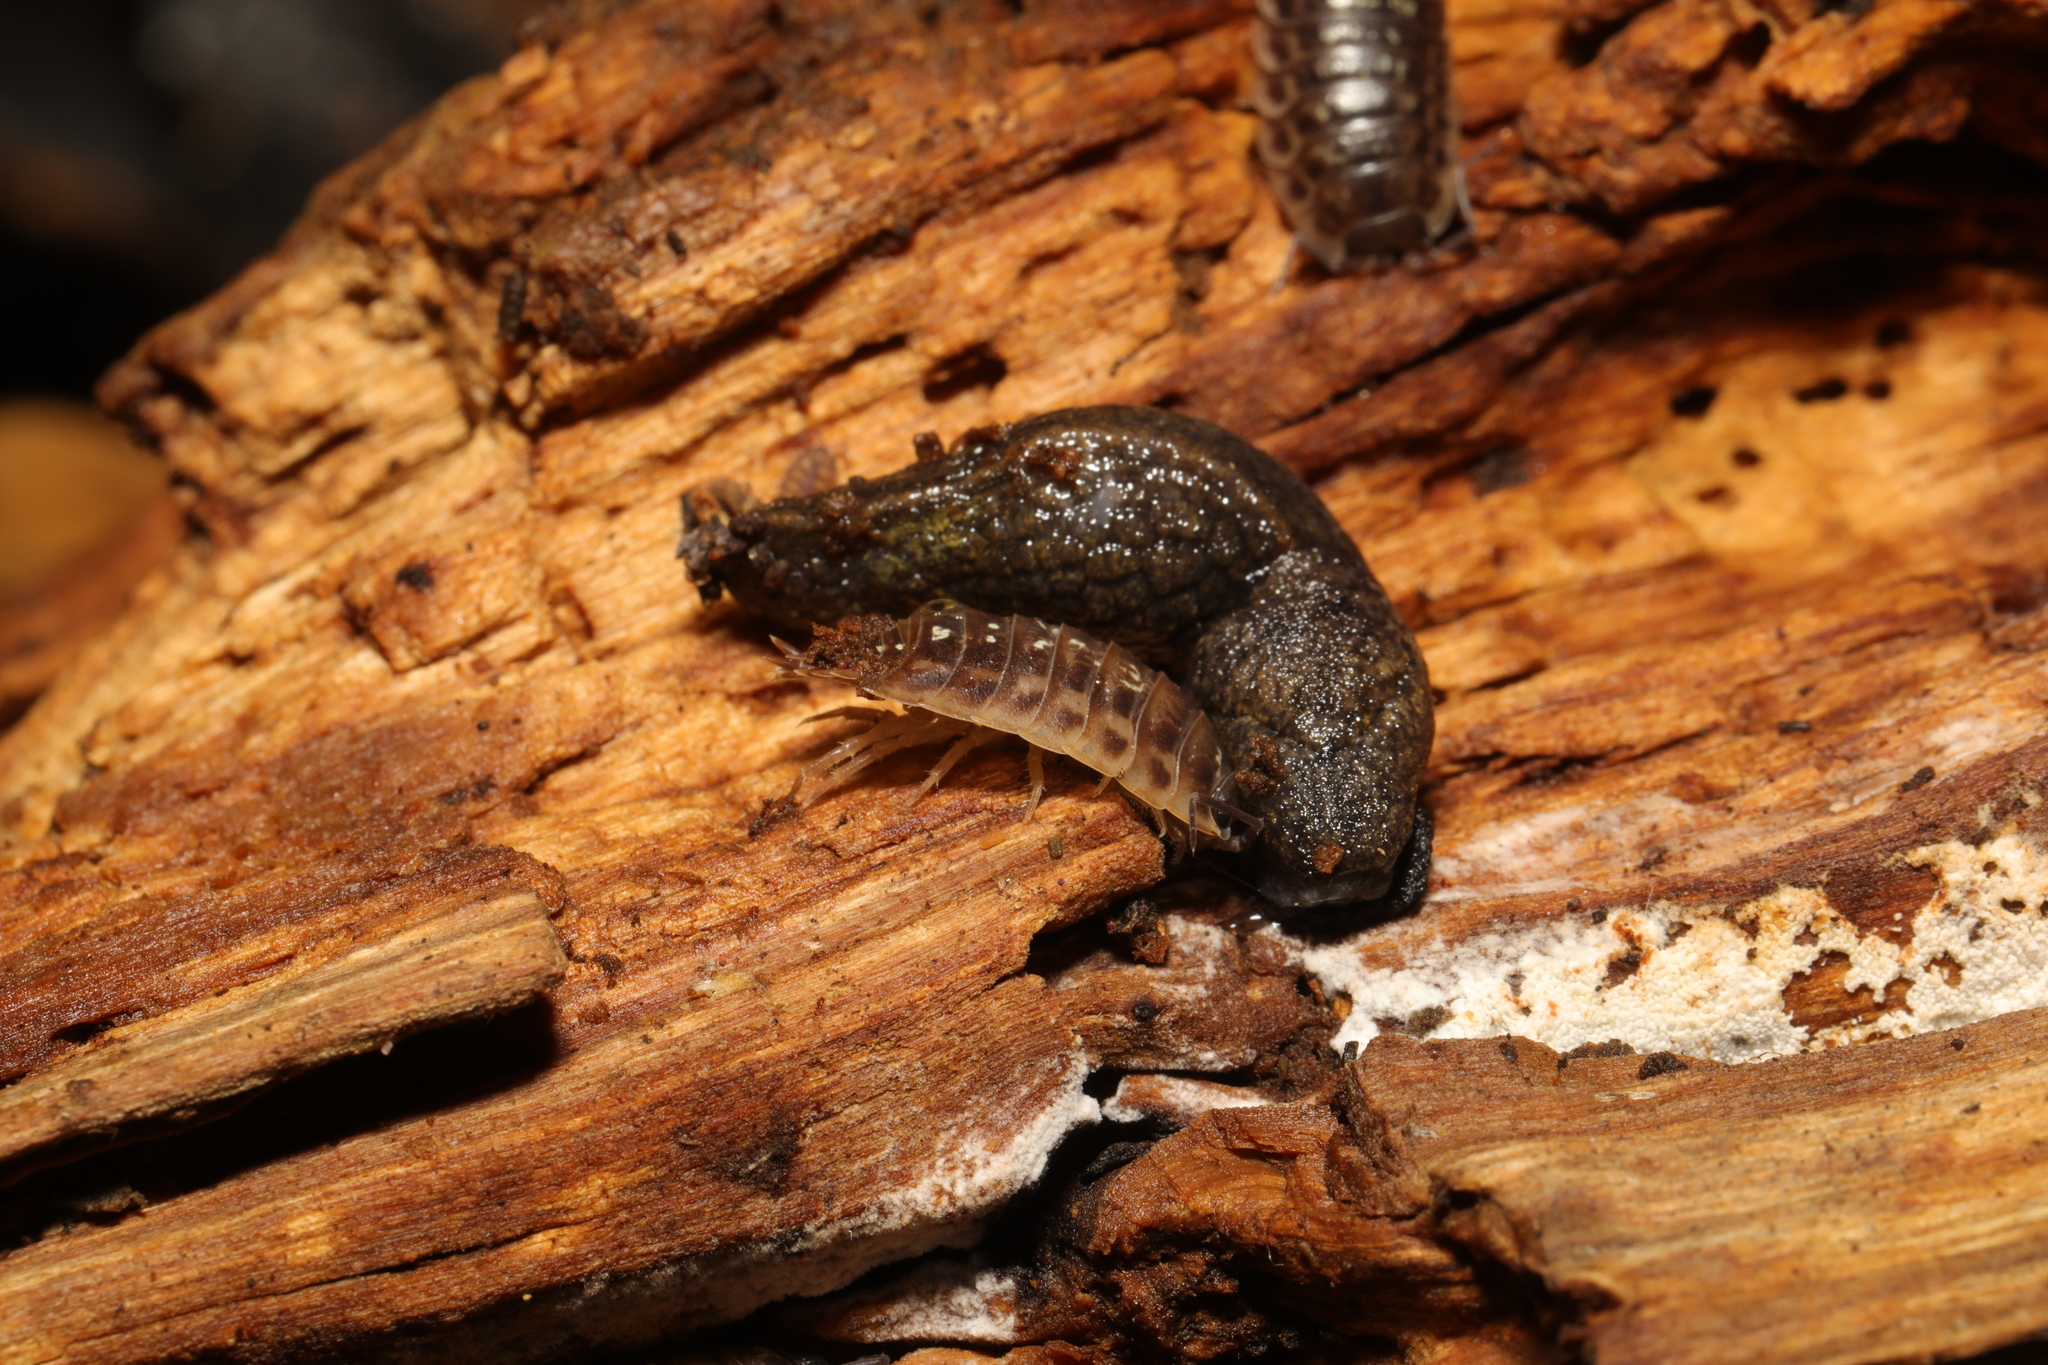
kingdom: Animalia
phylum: Arthropoda
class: Malacostraca
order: Isopoda
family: Oniscidae
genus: Oniscus
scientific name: Oniscus asellus
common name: Common shiny woodlouse
